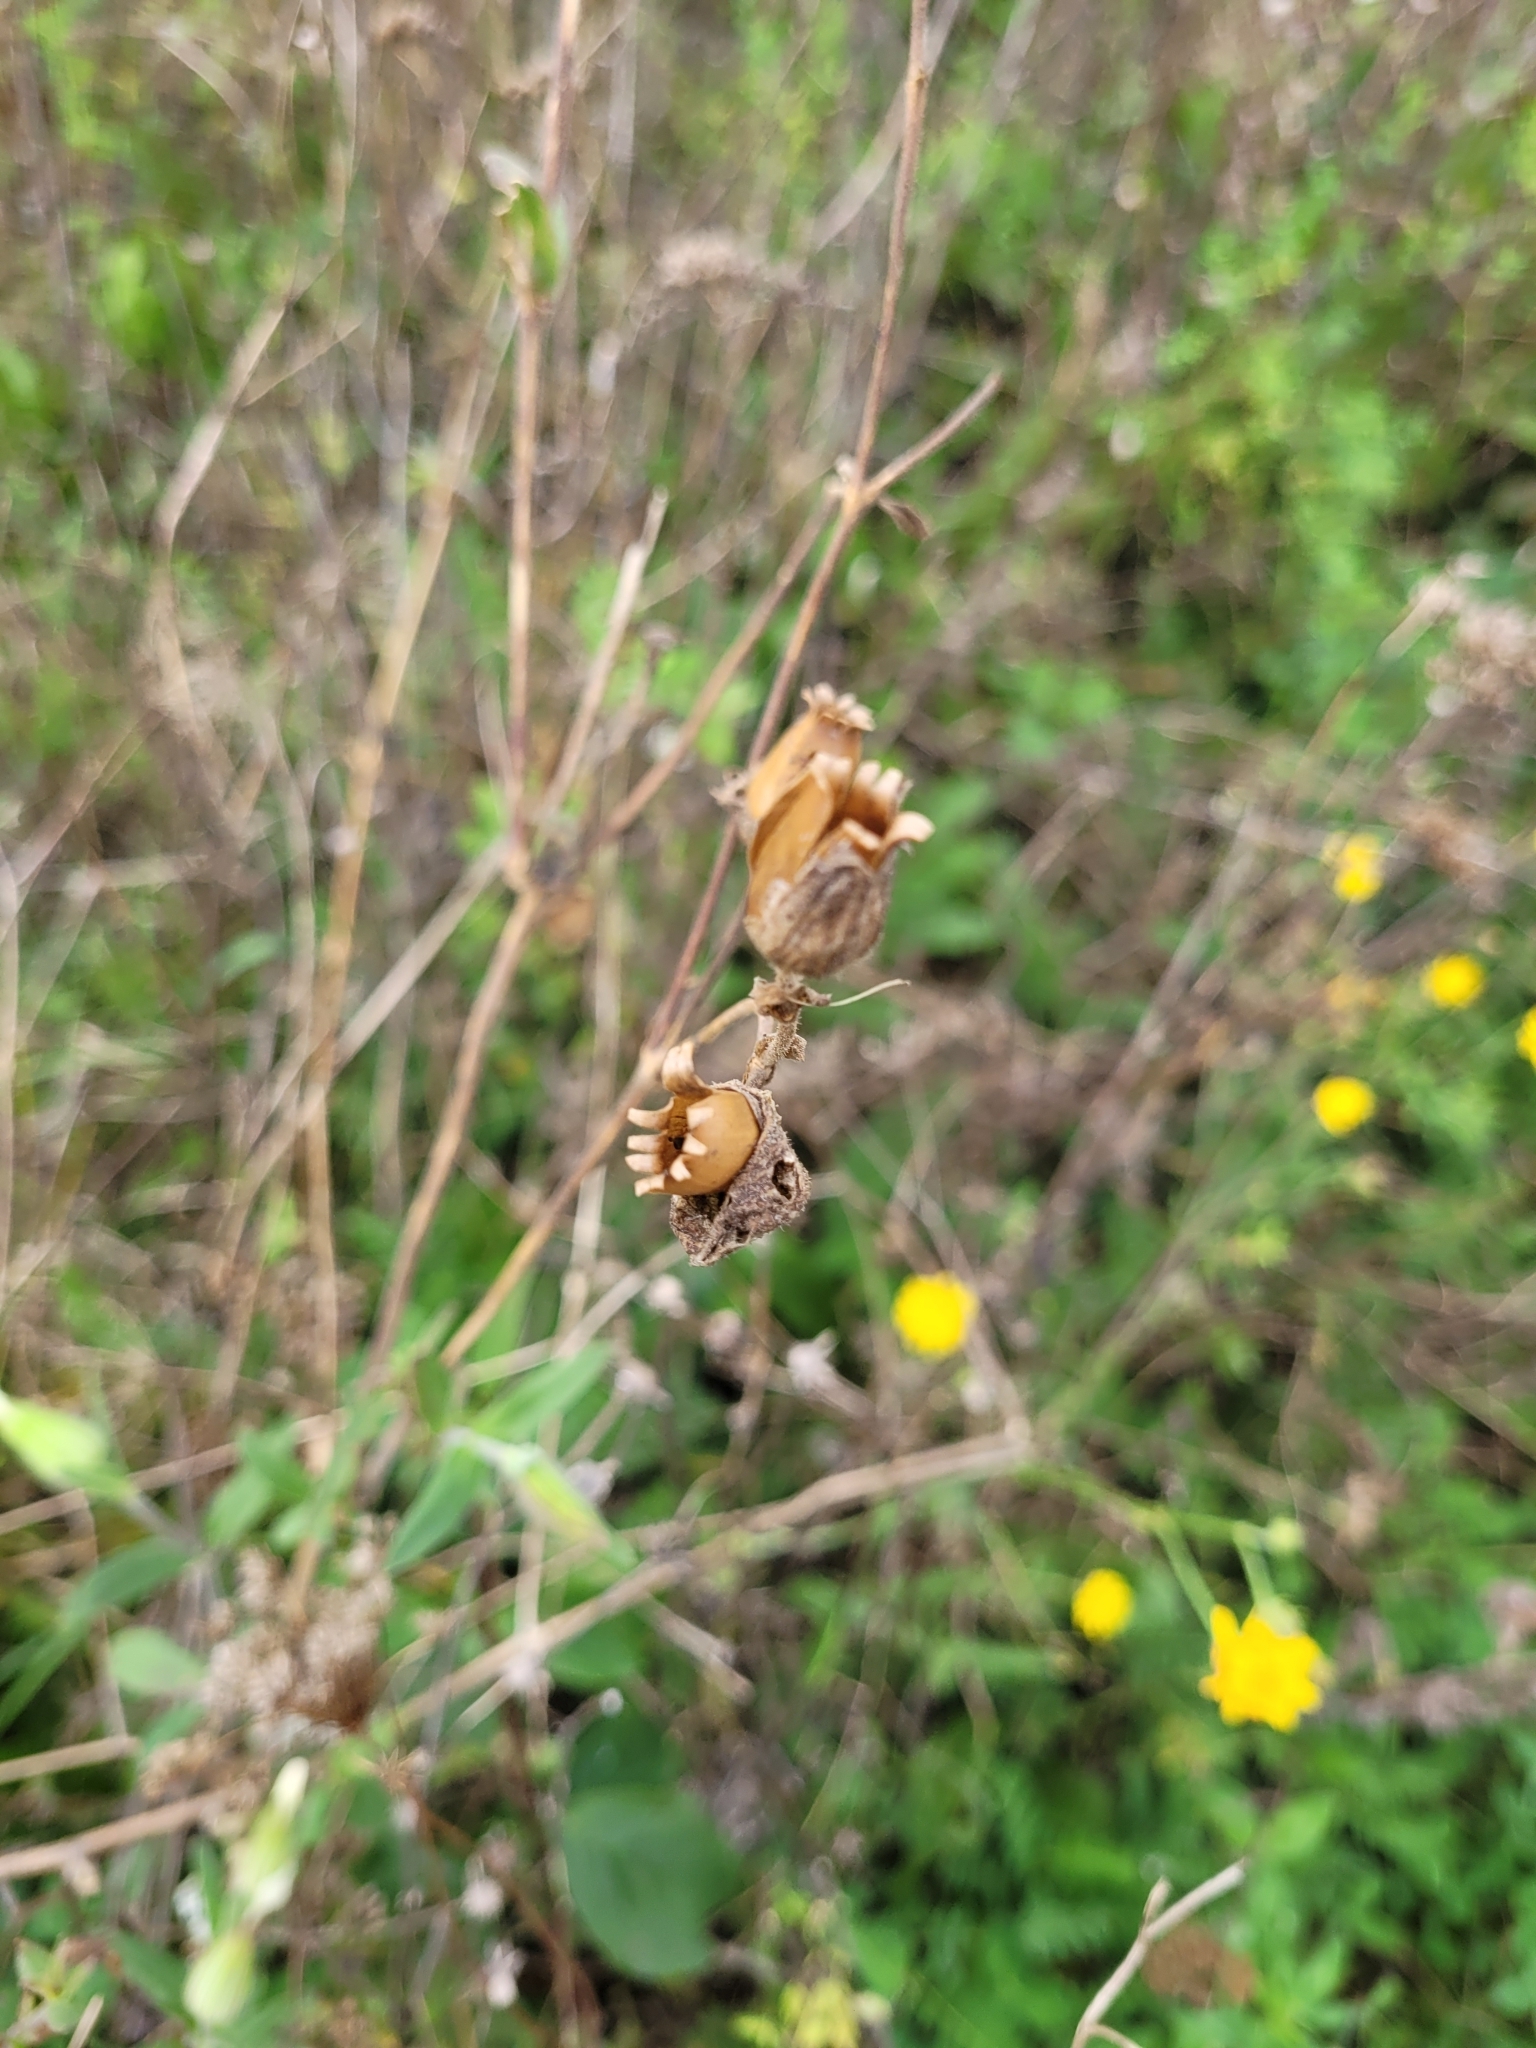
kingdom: Plantae
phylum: Tracheophyta
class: Magnoliopsida
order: Caryophyllales
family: Caryophyllaceae
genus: Silene
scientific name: Silene latifolia
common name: White campion
